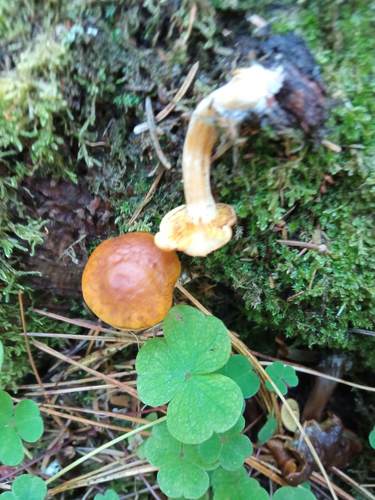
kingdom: Fungi
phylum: Basidiomycota
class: Agaricomycetes
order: Agaricales
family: Tubariaceae
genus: Tubaria
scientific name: Tubaria furfuracea
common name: Scurfy twiglet
